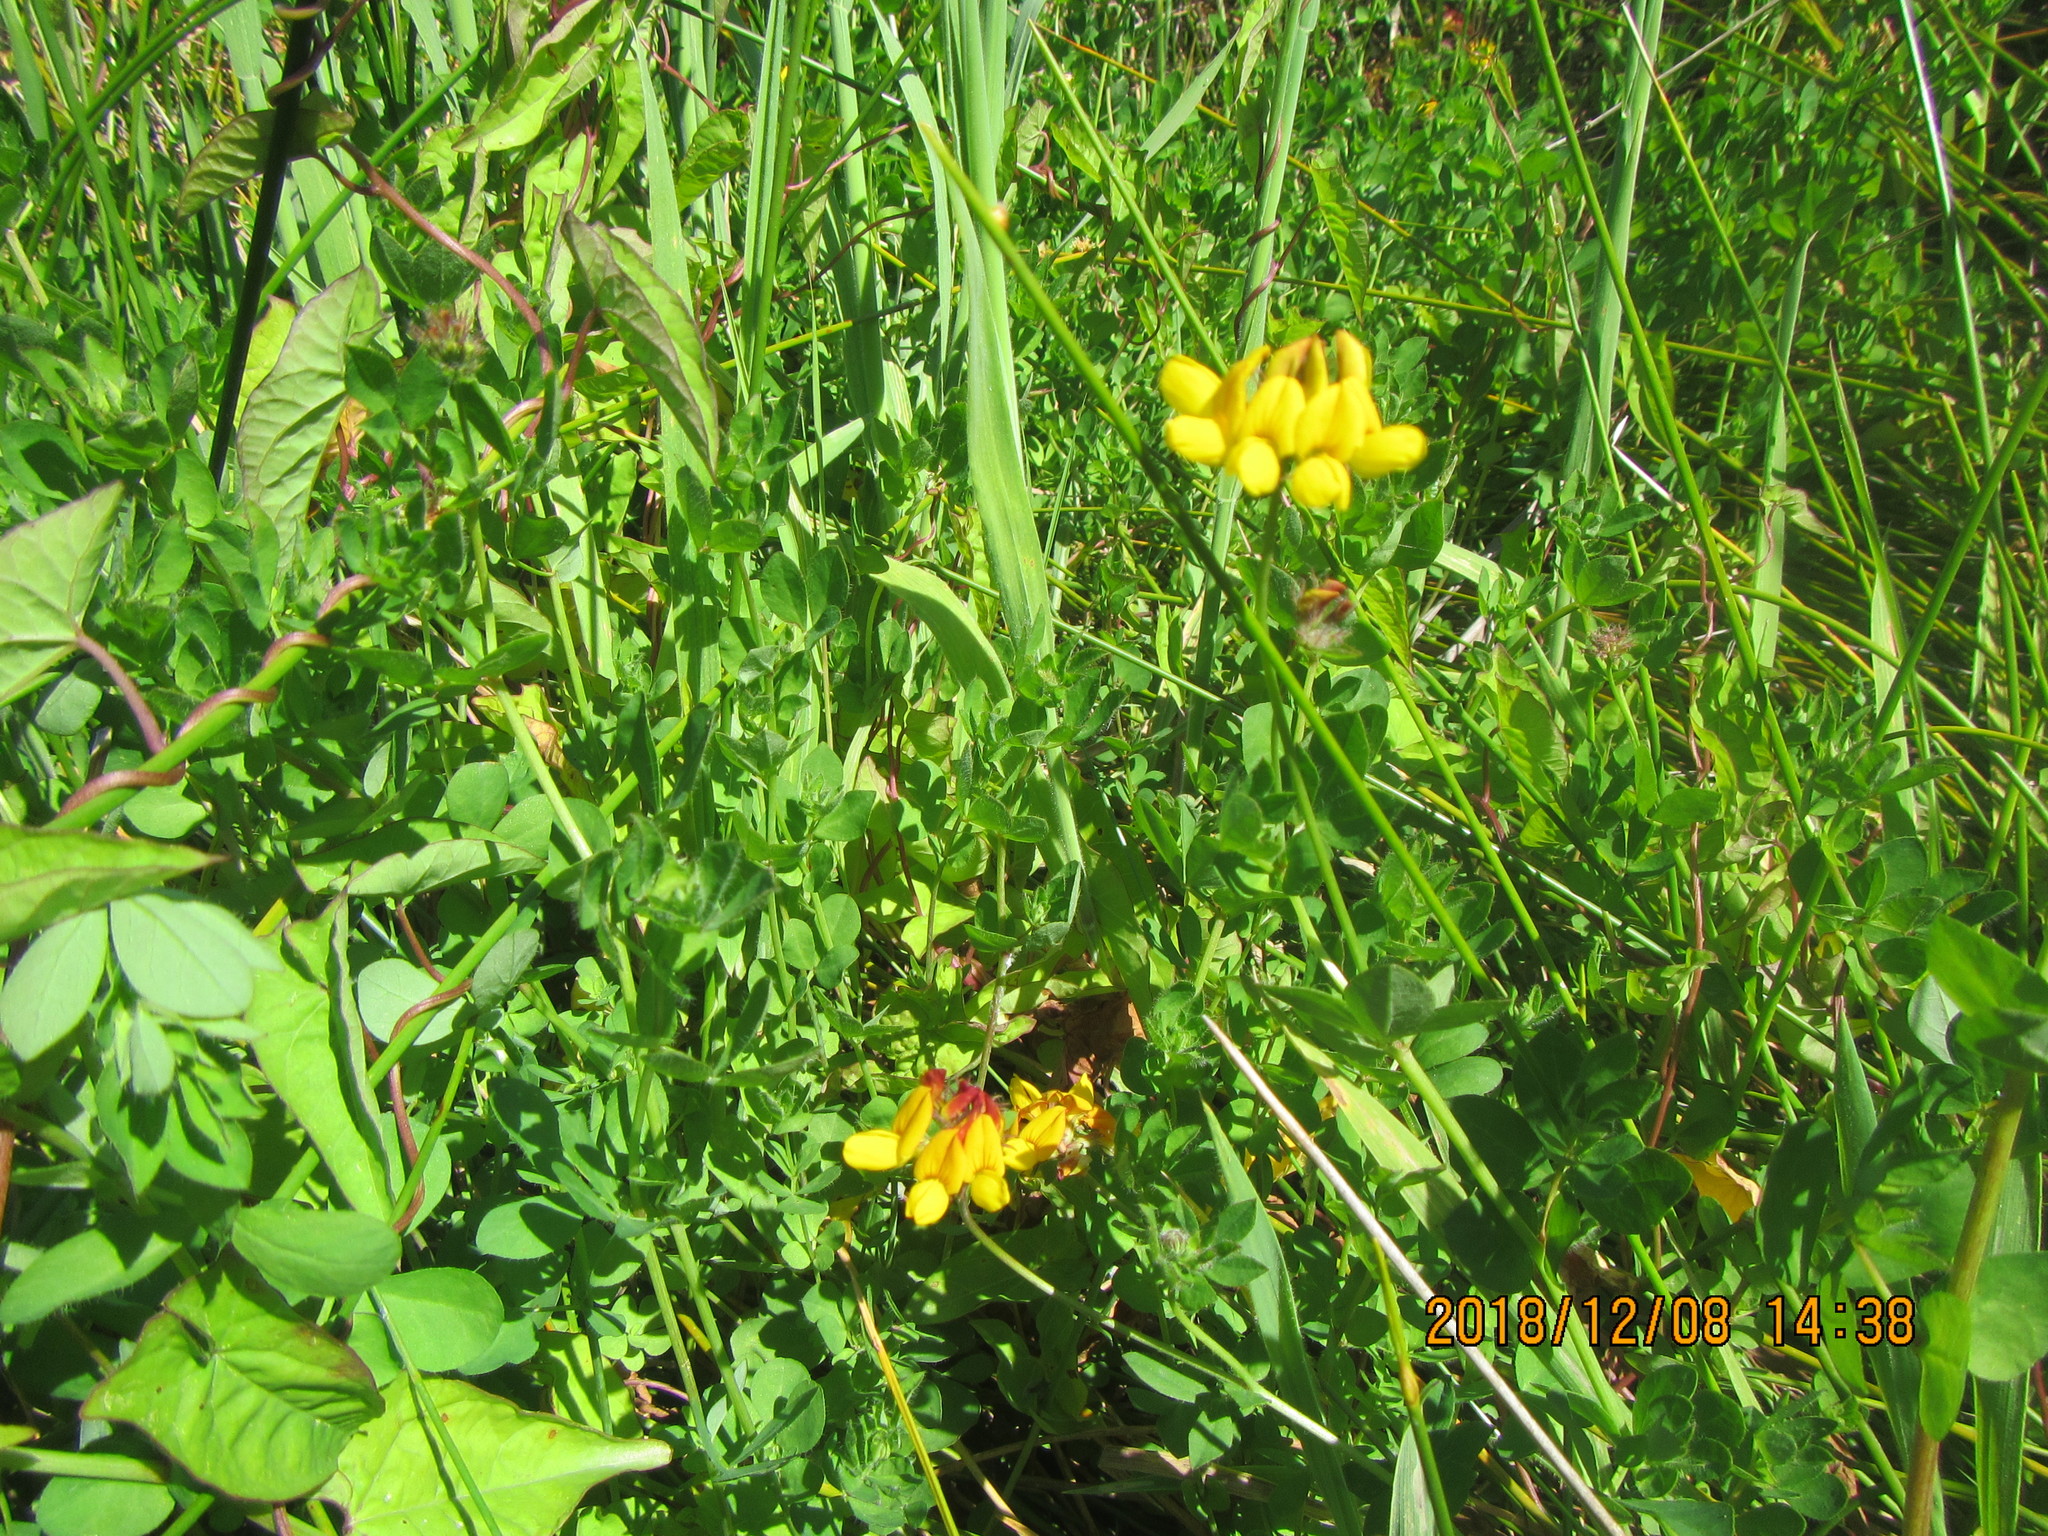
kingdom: Plantae
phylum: Tracheophyta
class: Magnoliopsida
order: Fabales
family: Fabaceae
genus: Lotus
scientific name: Lotus pedunculatus
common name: Greater birdsfoot-trefoil
